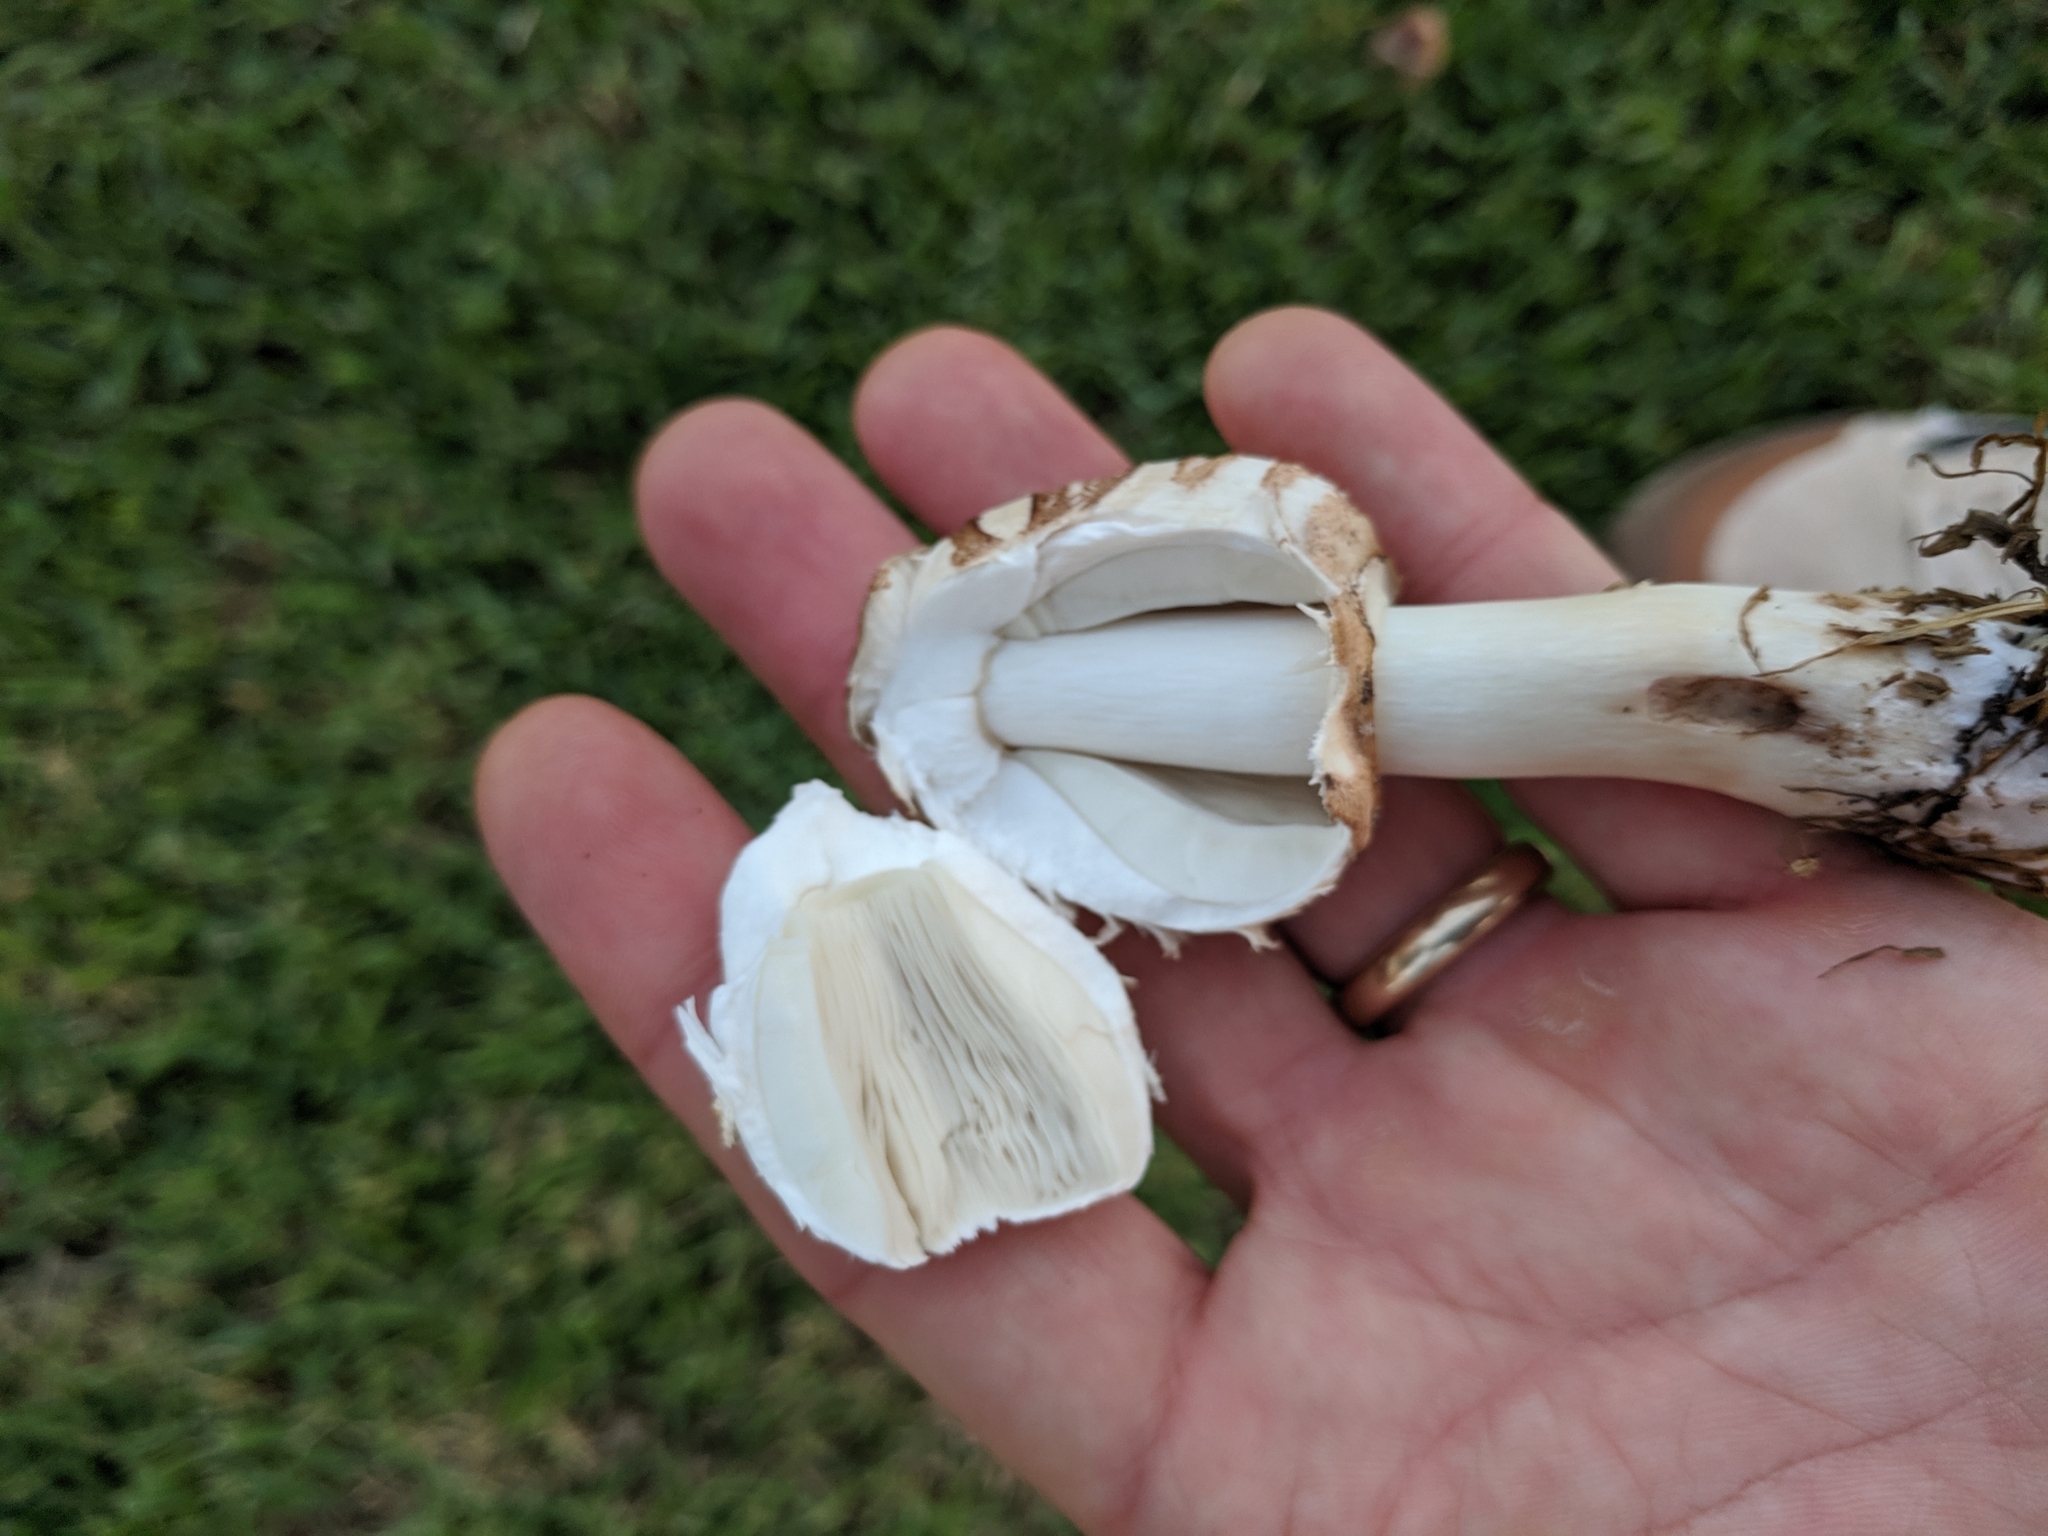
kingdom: Fungi
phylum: Basidiomycota
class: Agaricomycetes
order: Agaricales
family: Agaricaceae
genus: Chlorophyllum
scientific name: Chlorophyllum molybdites
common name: False parasol
